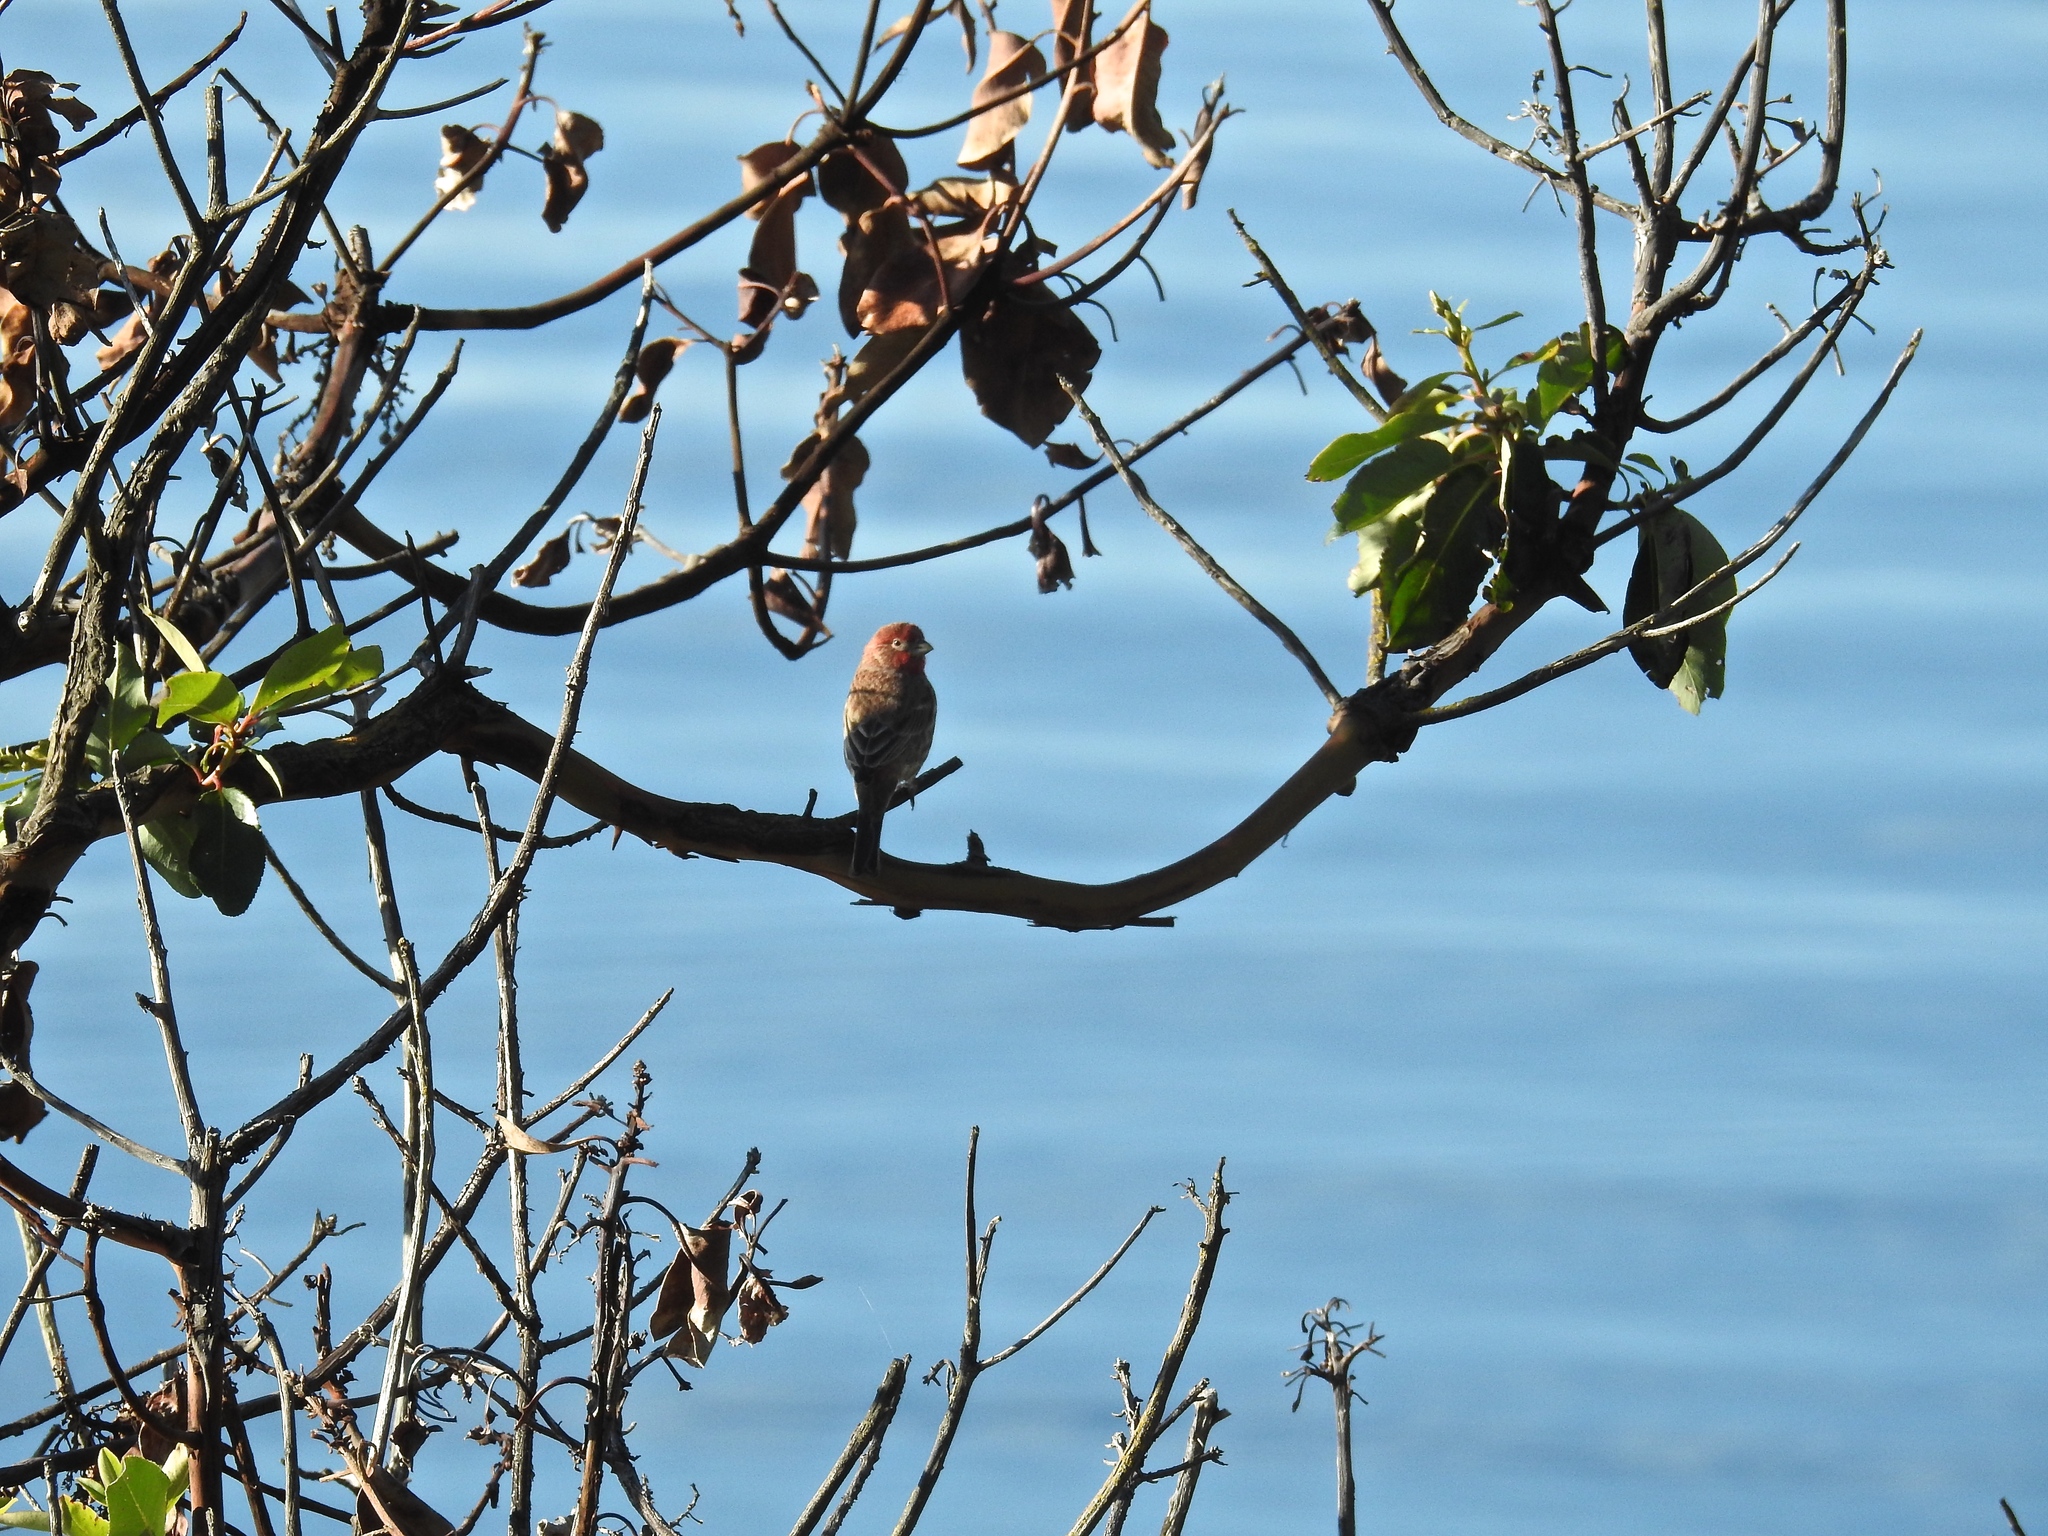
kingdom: Animalia
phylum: Chordata
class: Aves
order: Passeriformes
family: Fringillidae
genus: Haemorhous
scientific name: Haemorhous mexicanus
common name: House finch
